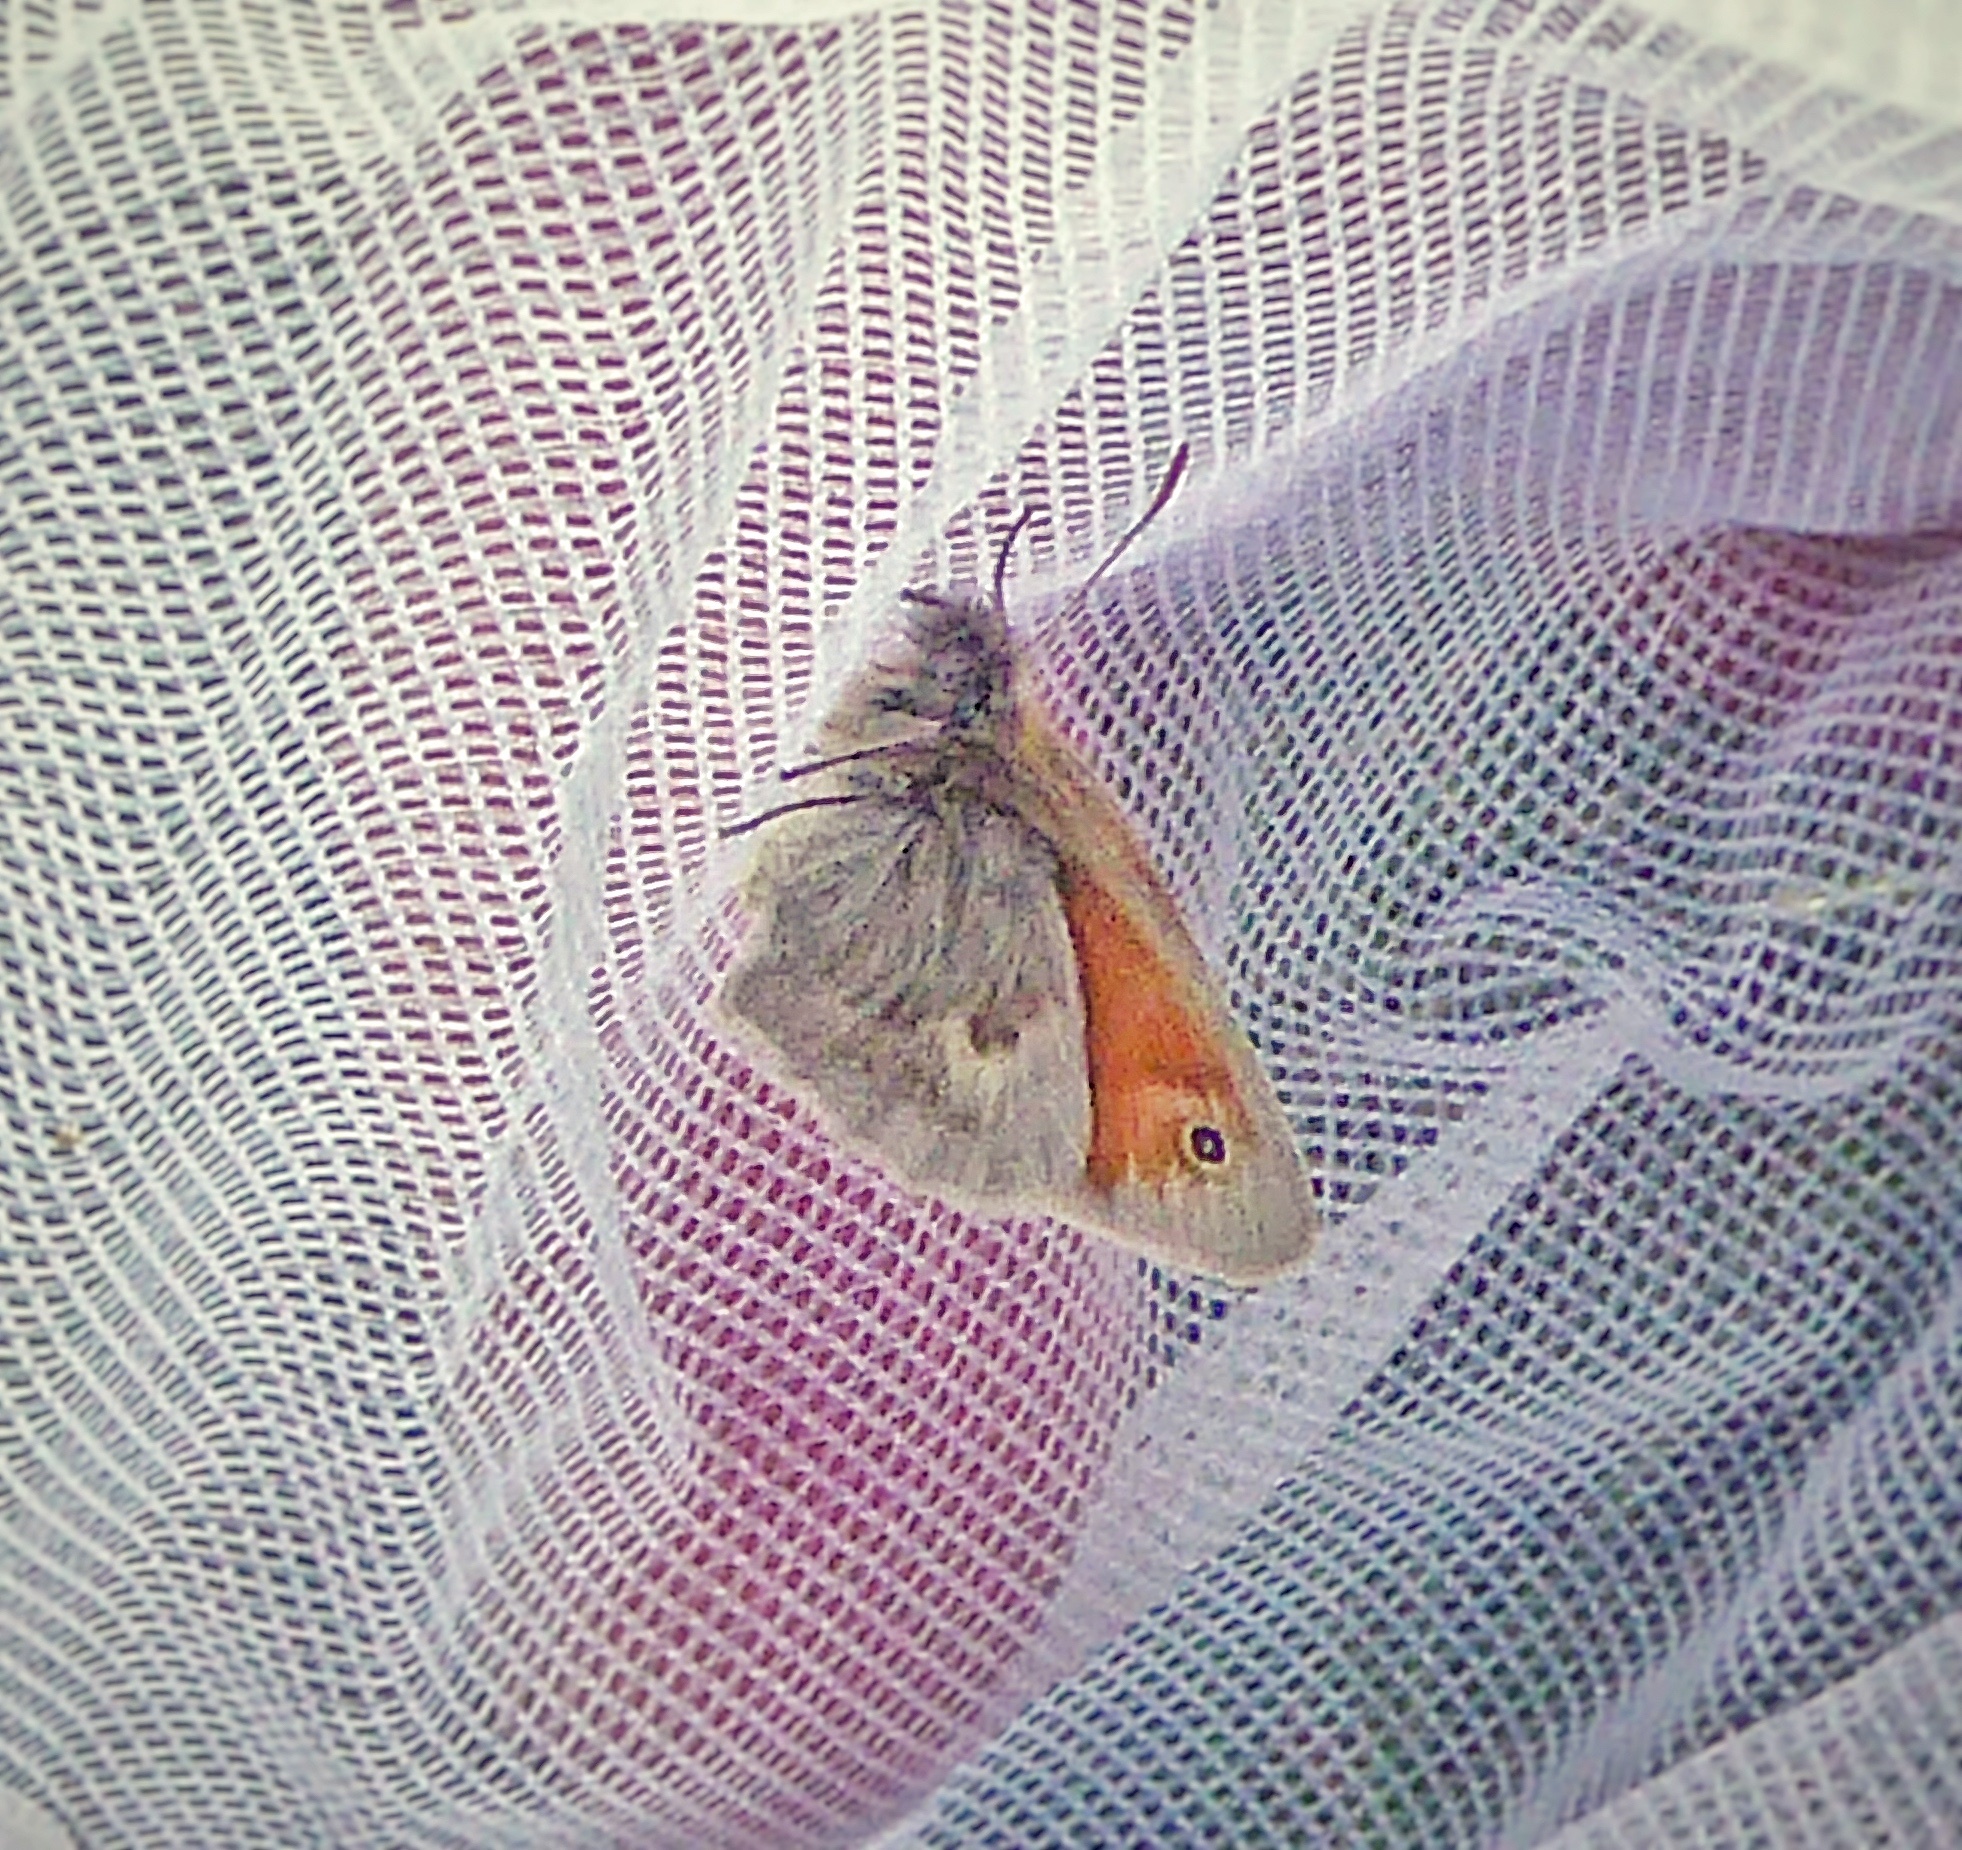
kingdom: Animalia
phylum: Arthropoda
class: Insecta
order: Lepidoptera
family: Nymphalidae
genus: Coenonympha
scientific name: Coenonympha pamphilus
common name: Small heath
